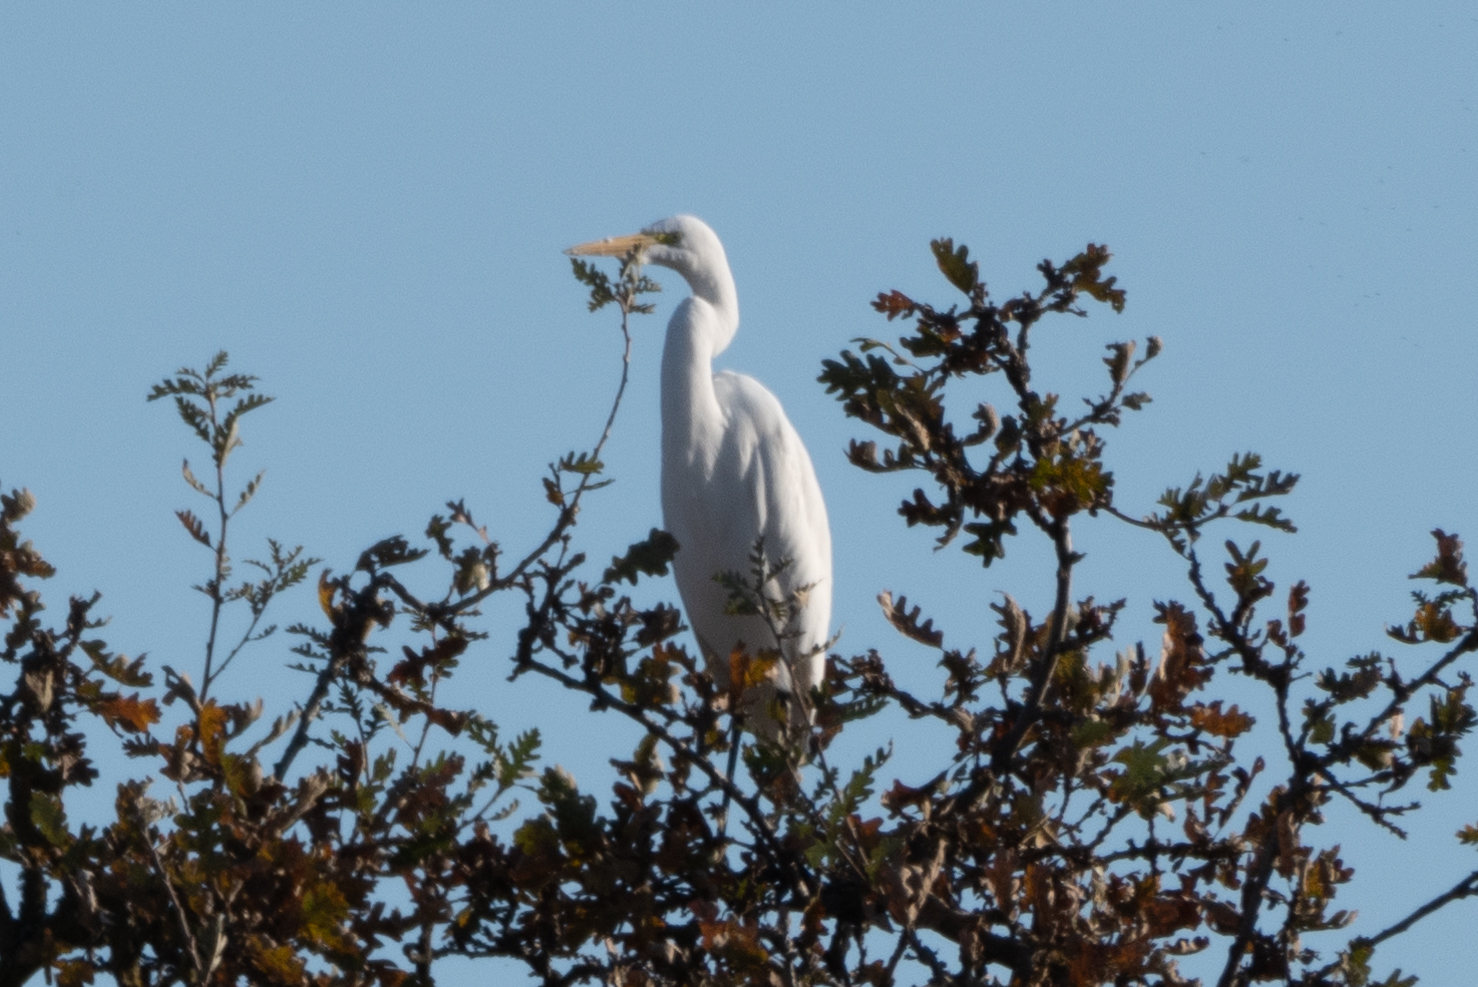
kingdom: Animalia
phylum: Chordata
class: Aves
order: Pelecaniformes
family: Ardeidae
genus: Ardea
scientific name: Ardea alba
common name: Great egret
